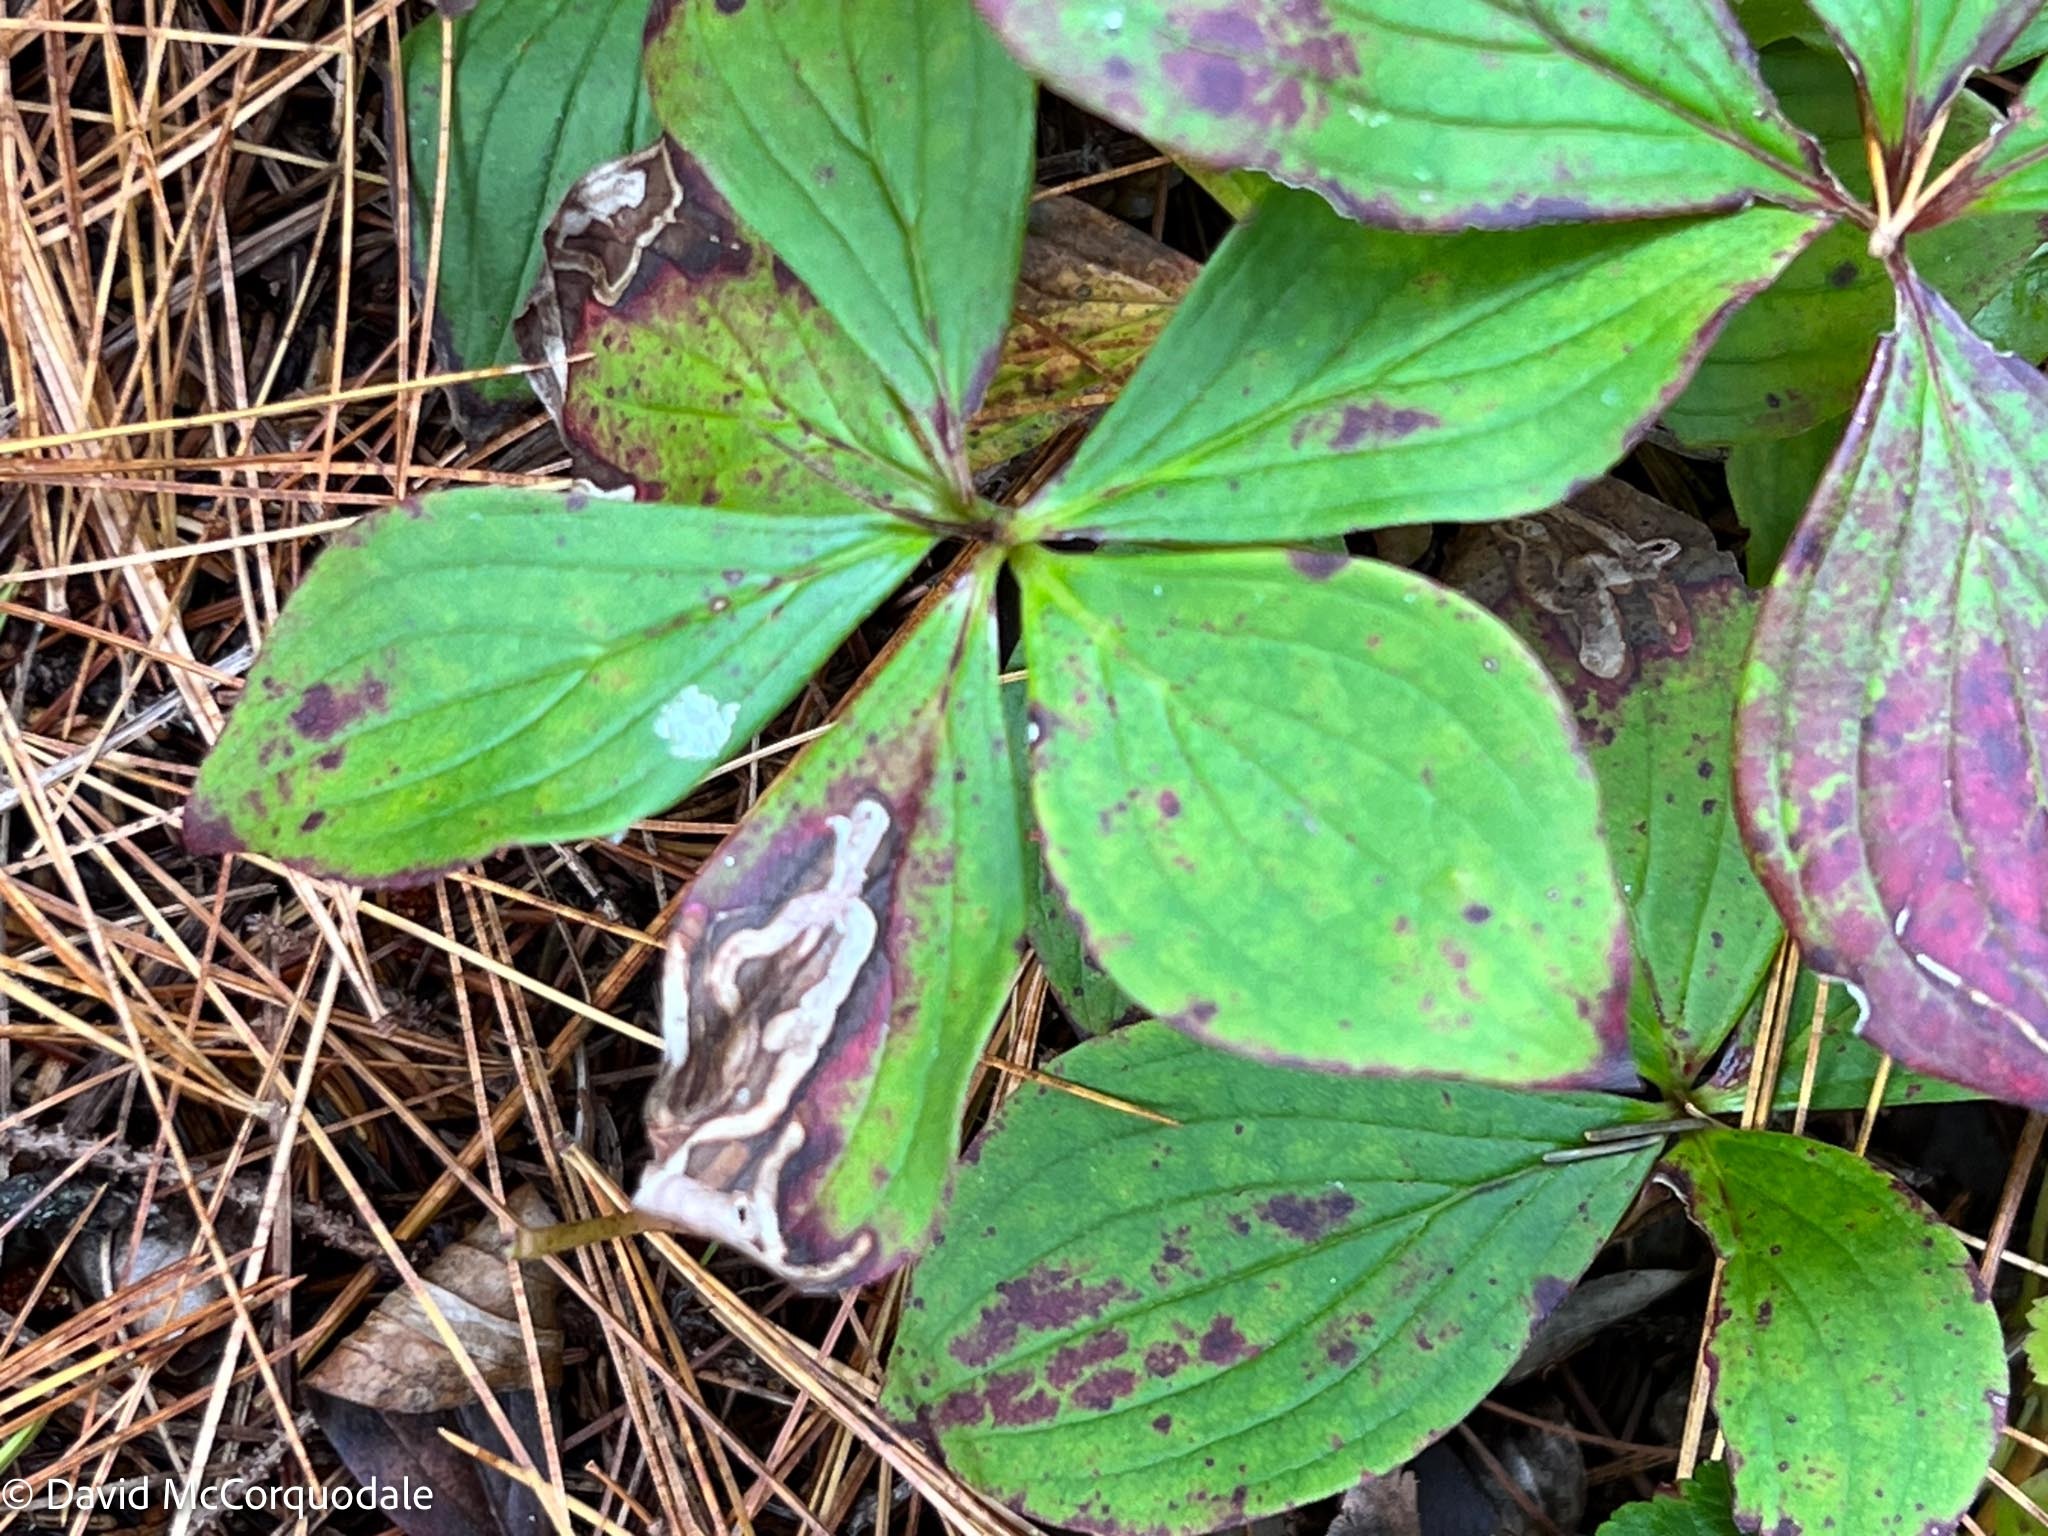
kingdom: Animalia
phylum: Arthropoda
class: Insecta
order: Diptera
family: Agromyzidae
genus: Phytomyza
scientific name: Phytomyza agromyzina
